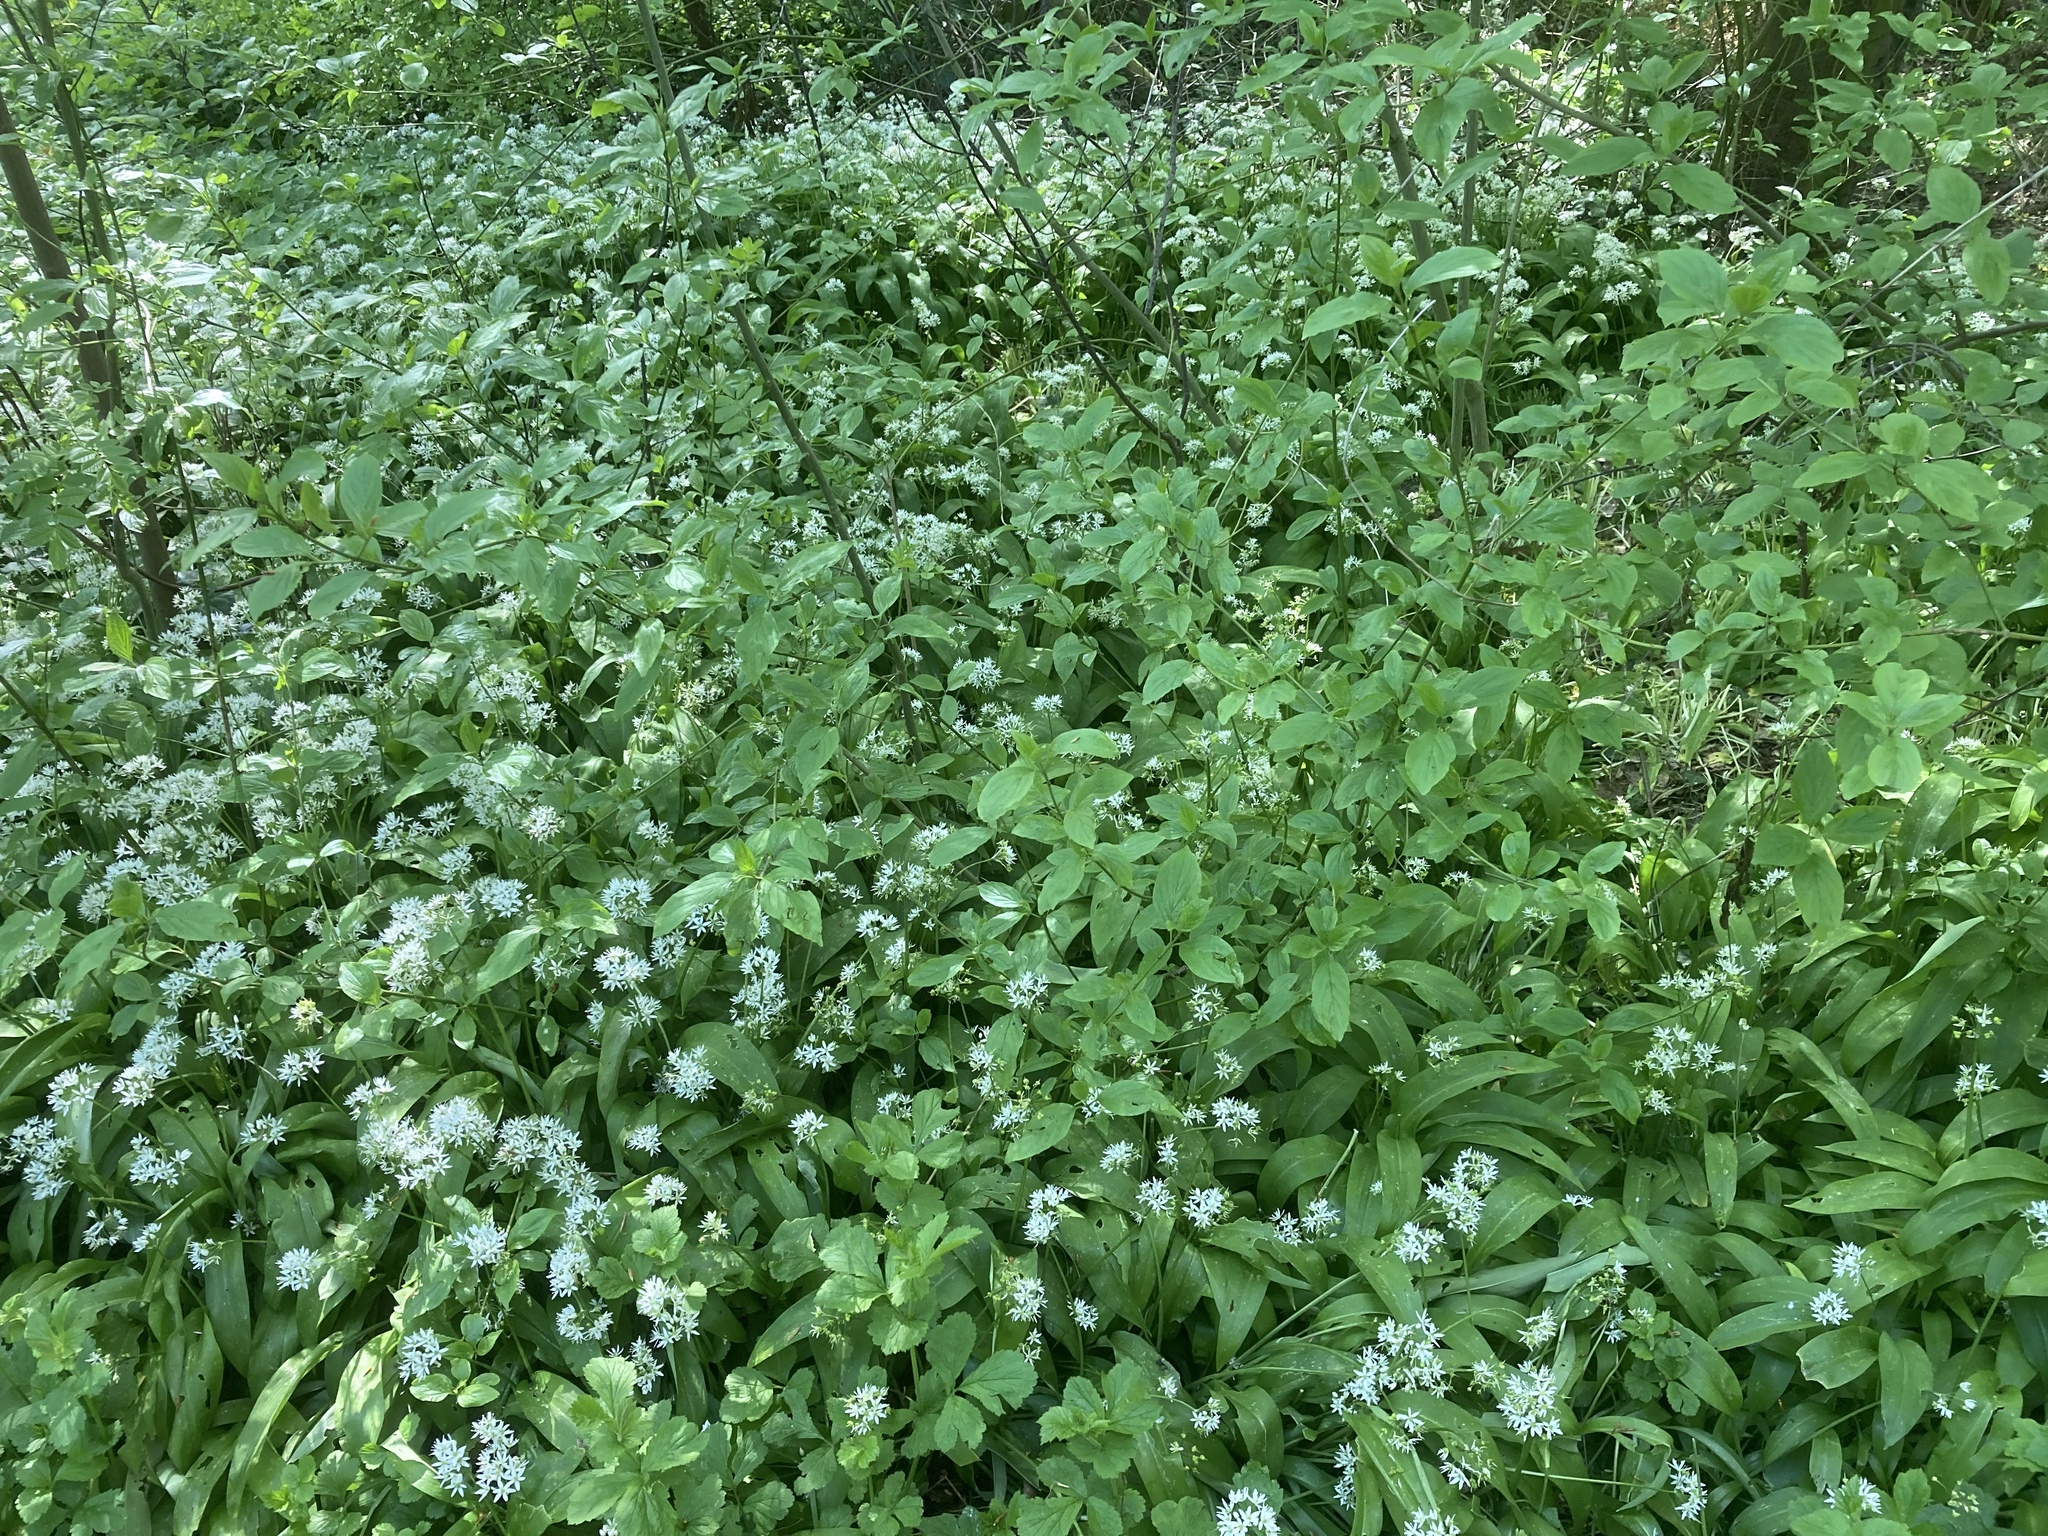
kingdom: Plantae
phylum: Tracheophyta
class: Liliopsida
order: Asparagales
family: Amaryllidaceae
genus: Allium
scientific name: Allium ursinum
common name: Ramsons
